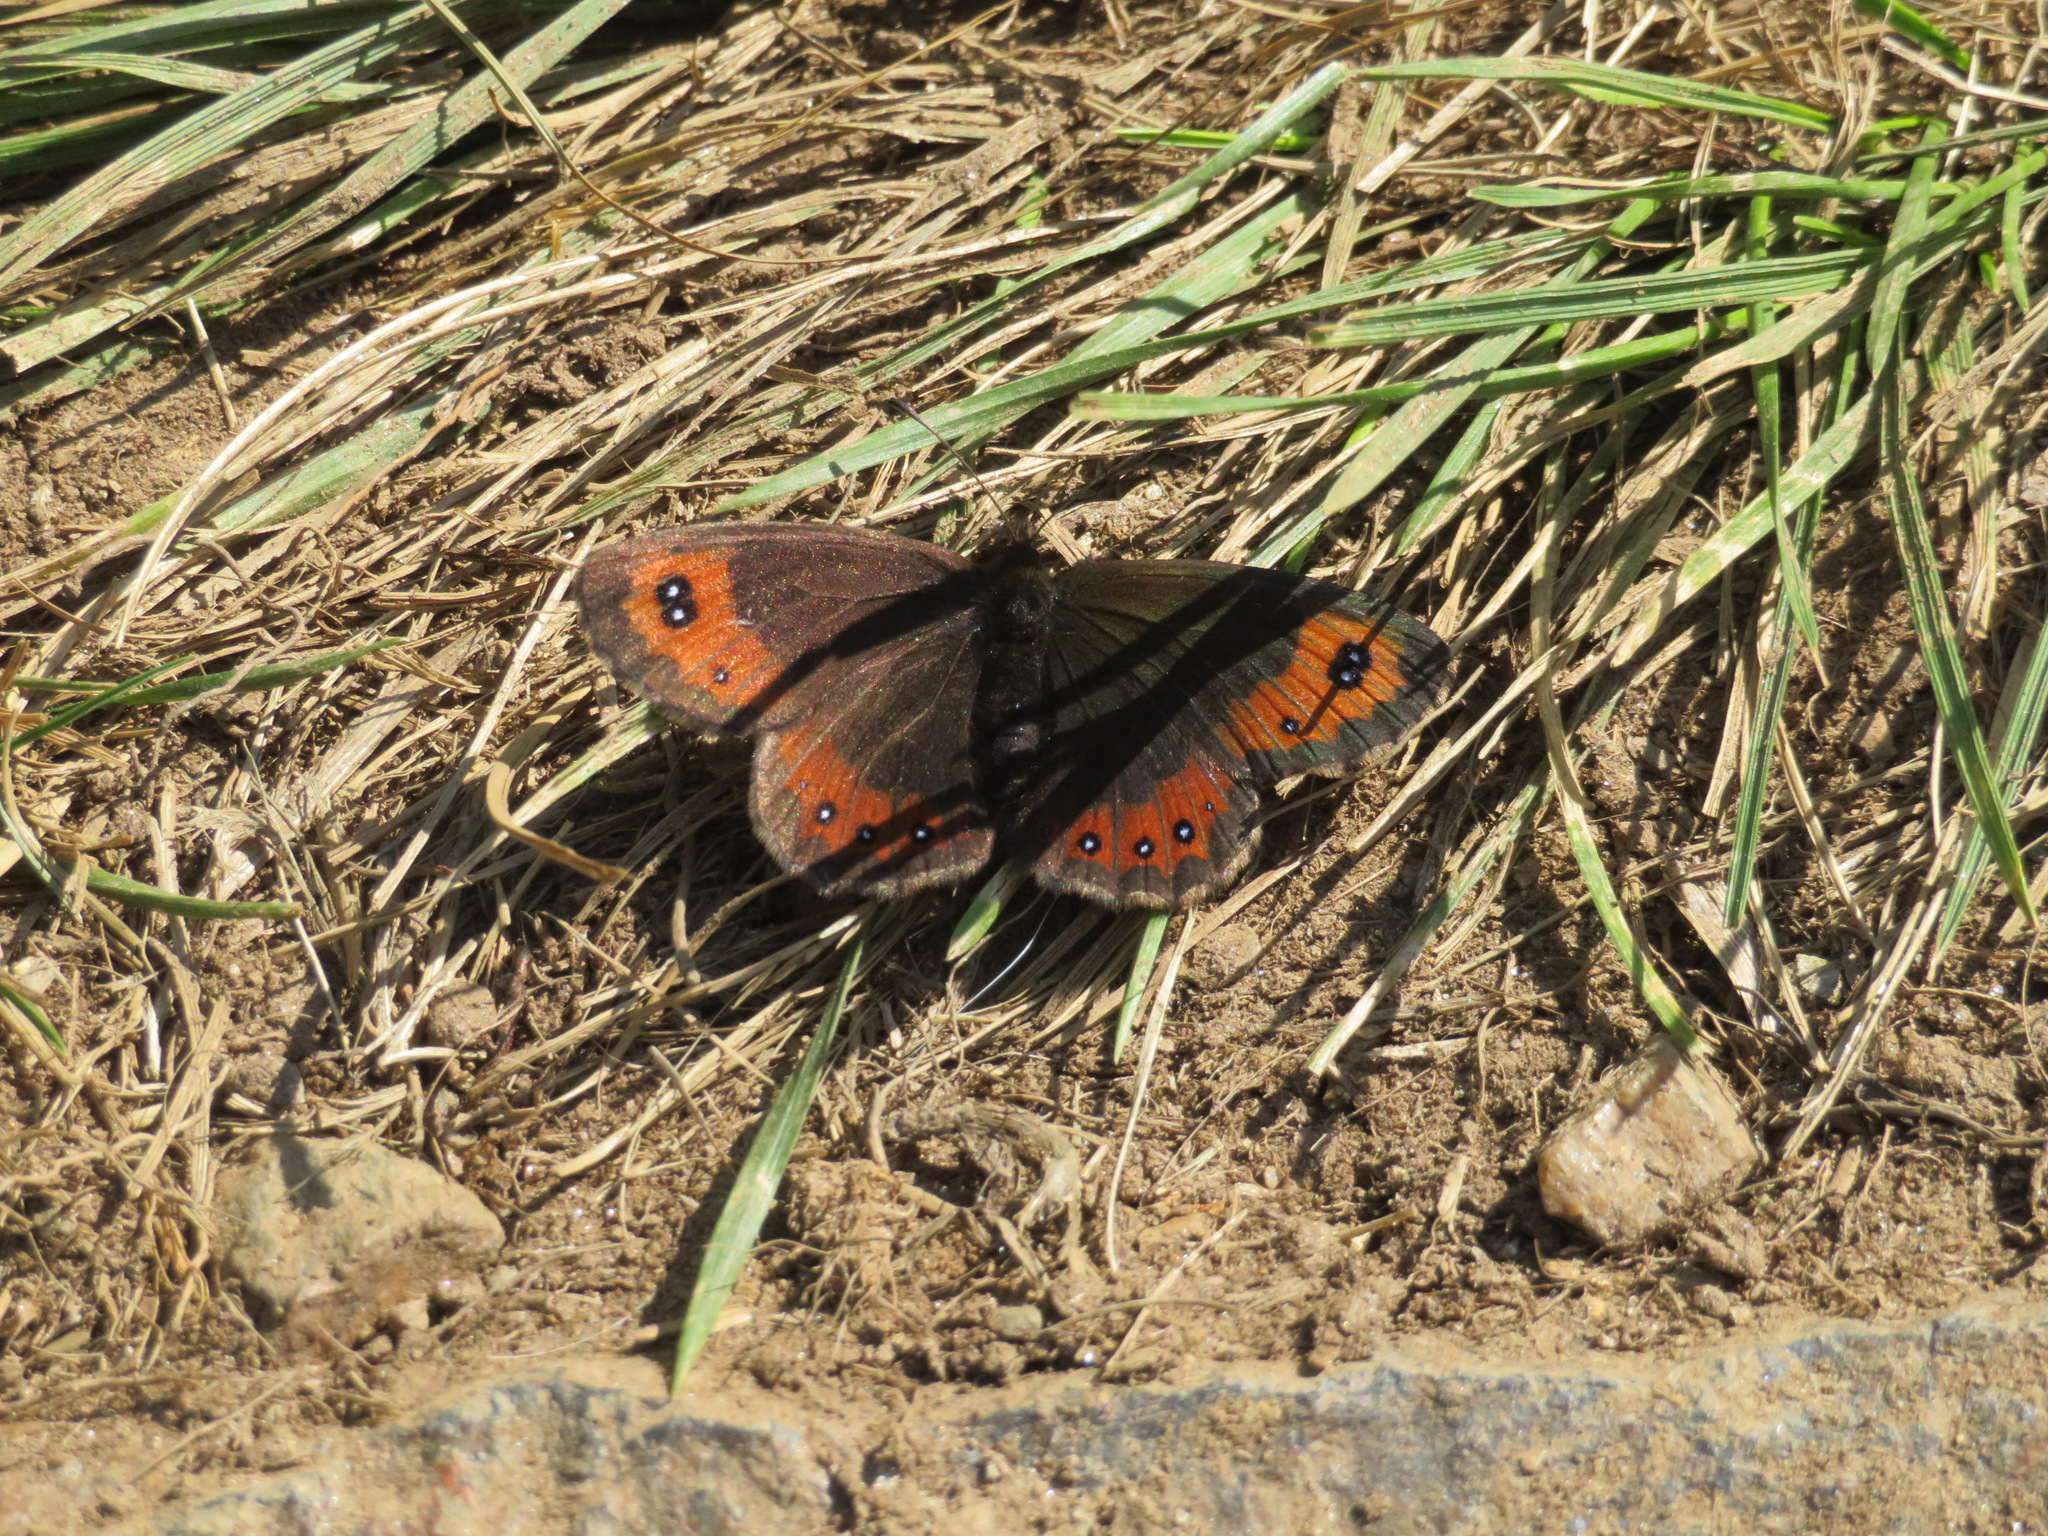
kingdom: Animalia
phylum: Arthropoda
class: Insecta
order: Lepidoptera
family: Nymphalidae
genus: Erebia
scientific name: Erebia montanus
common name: Marbled ringlet
